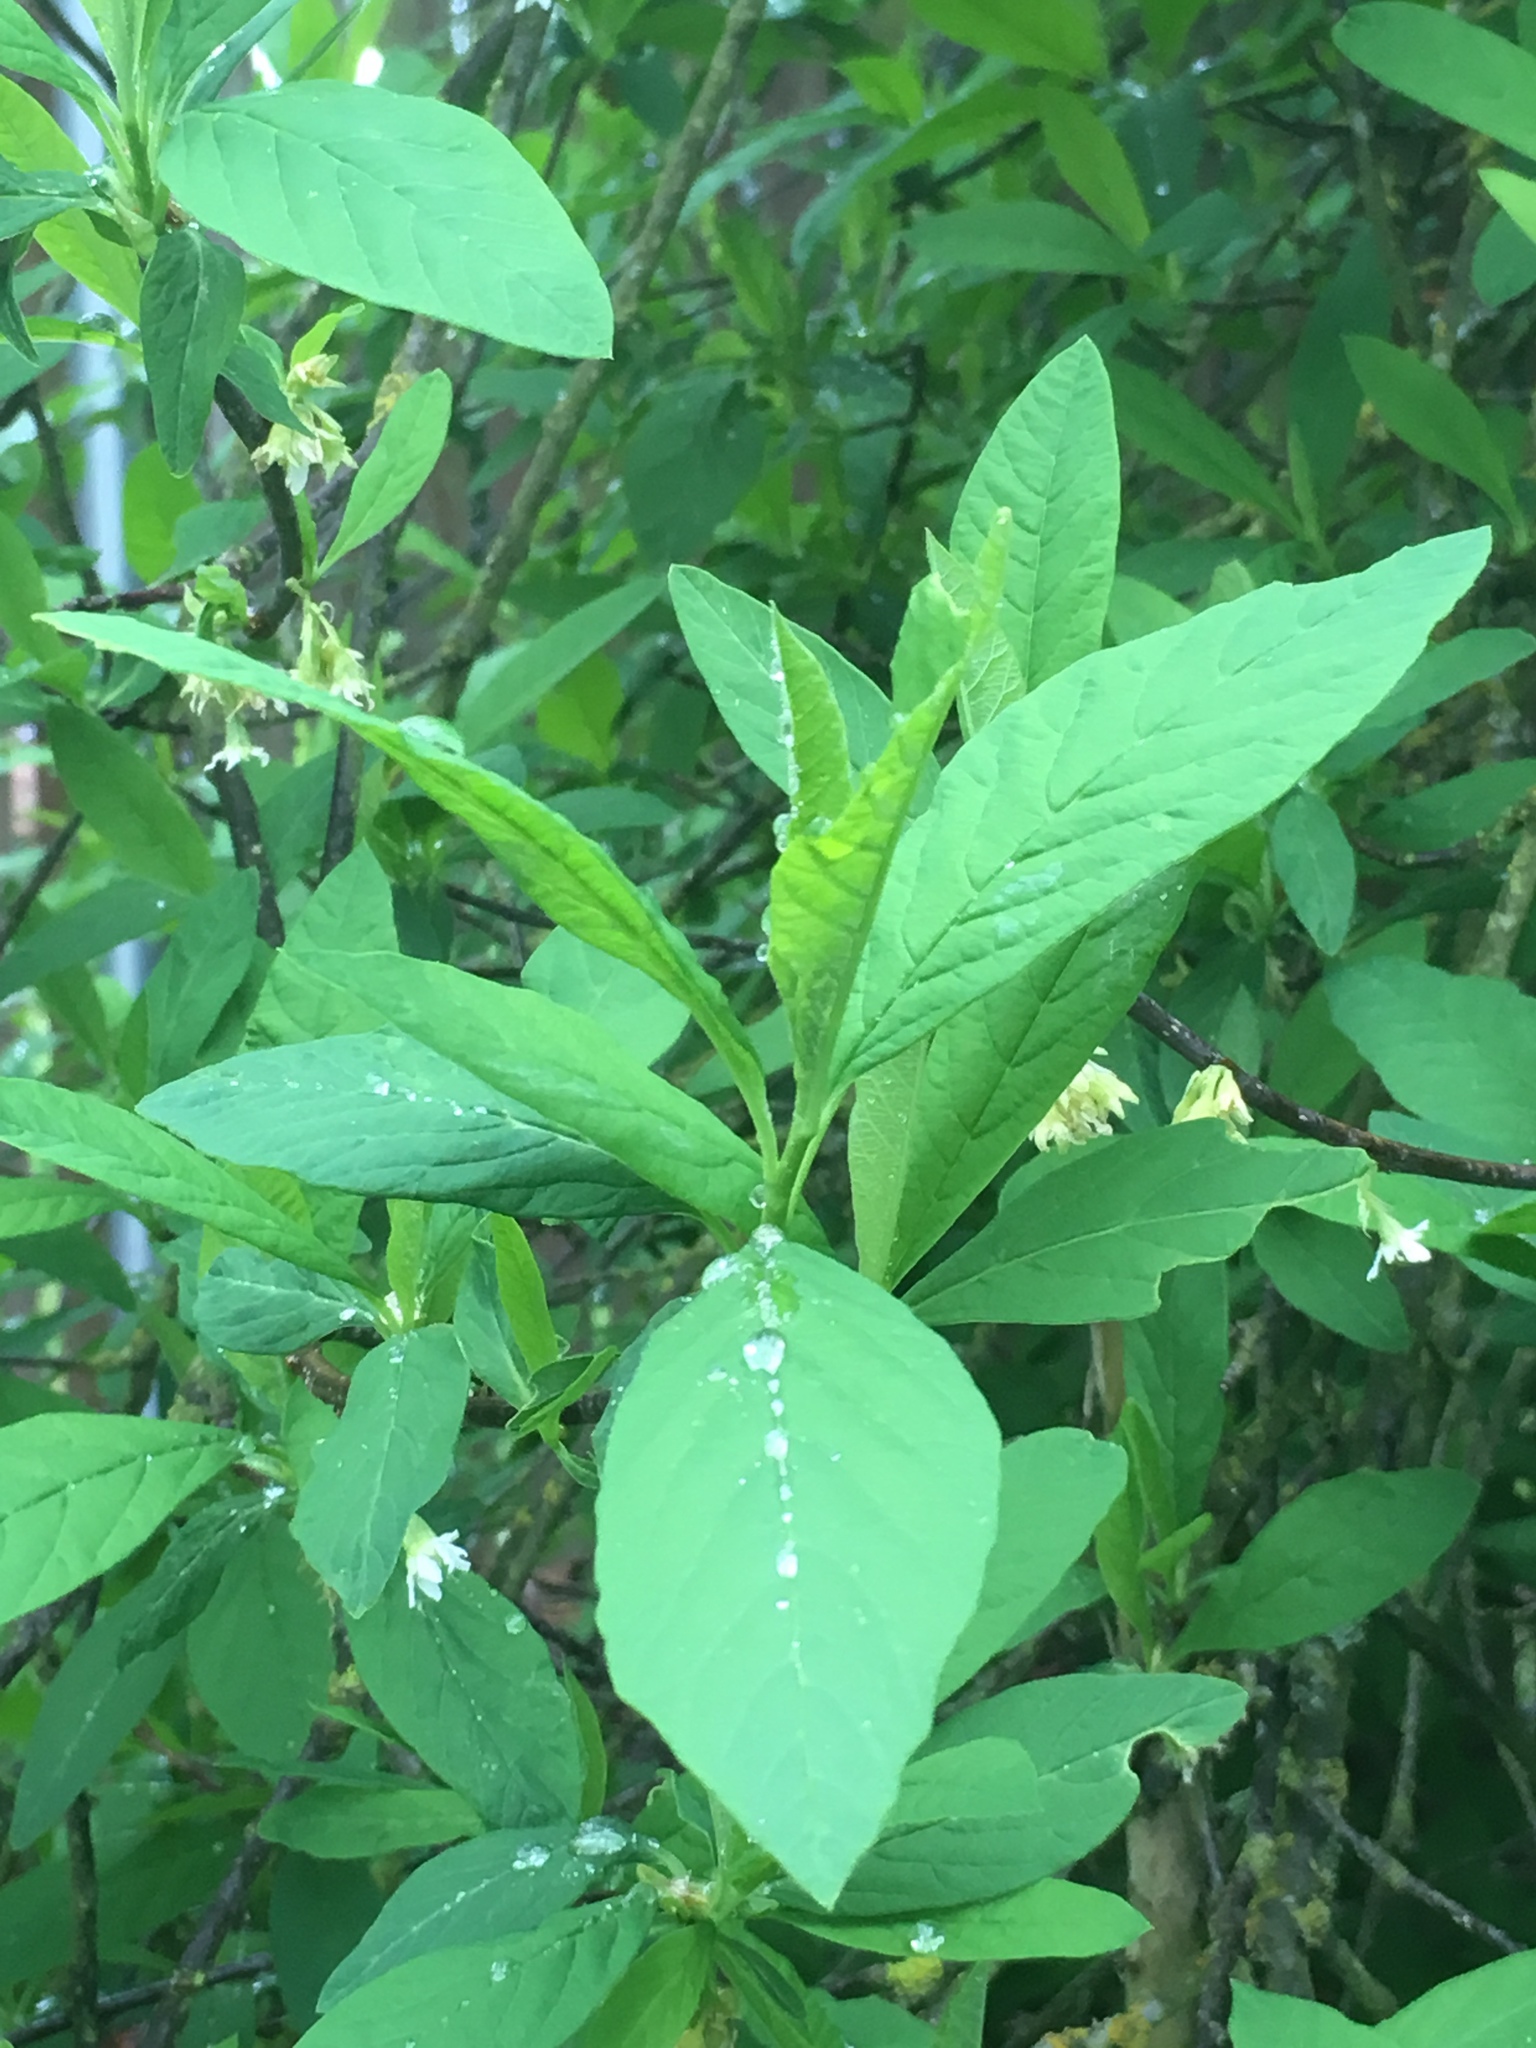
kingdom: Plantae
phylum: Tracheophyta
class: Magnoliopsida
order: Rosales
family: Rosaceae
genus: Oemleria
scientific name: Oemleria cerasiformis
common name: Osoberry
